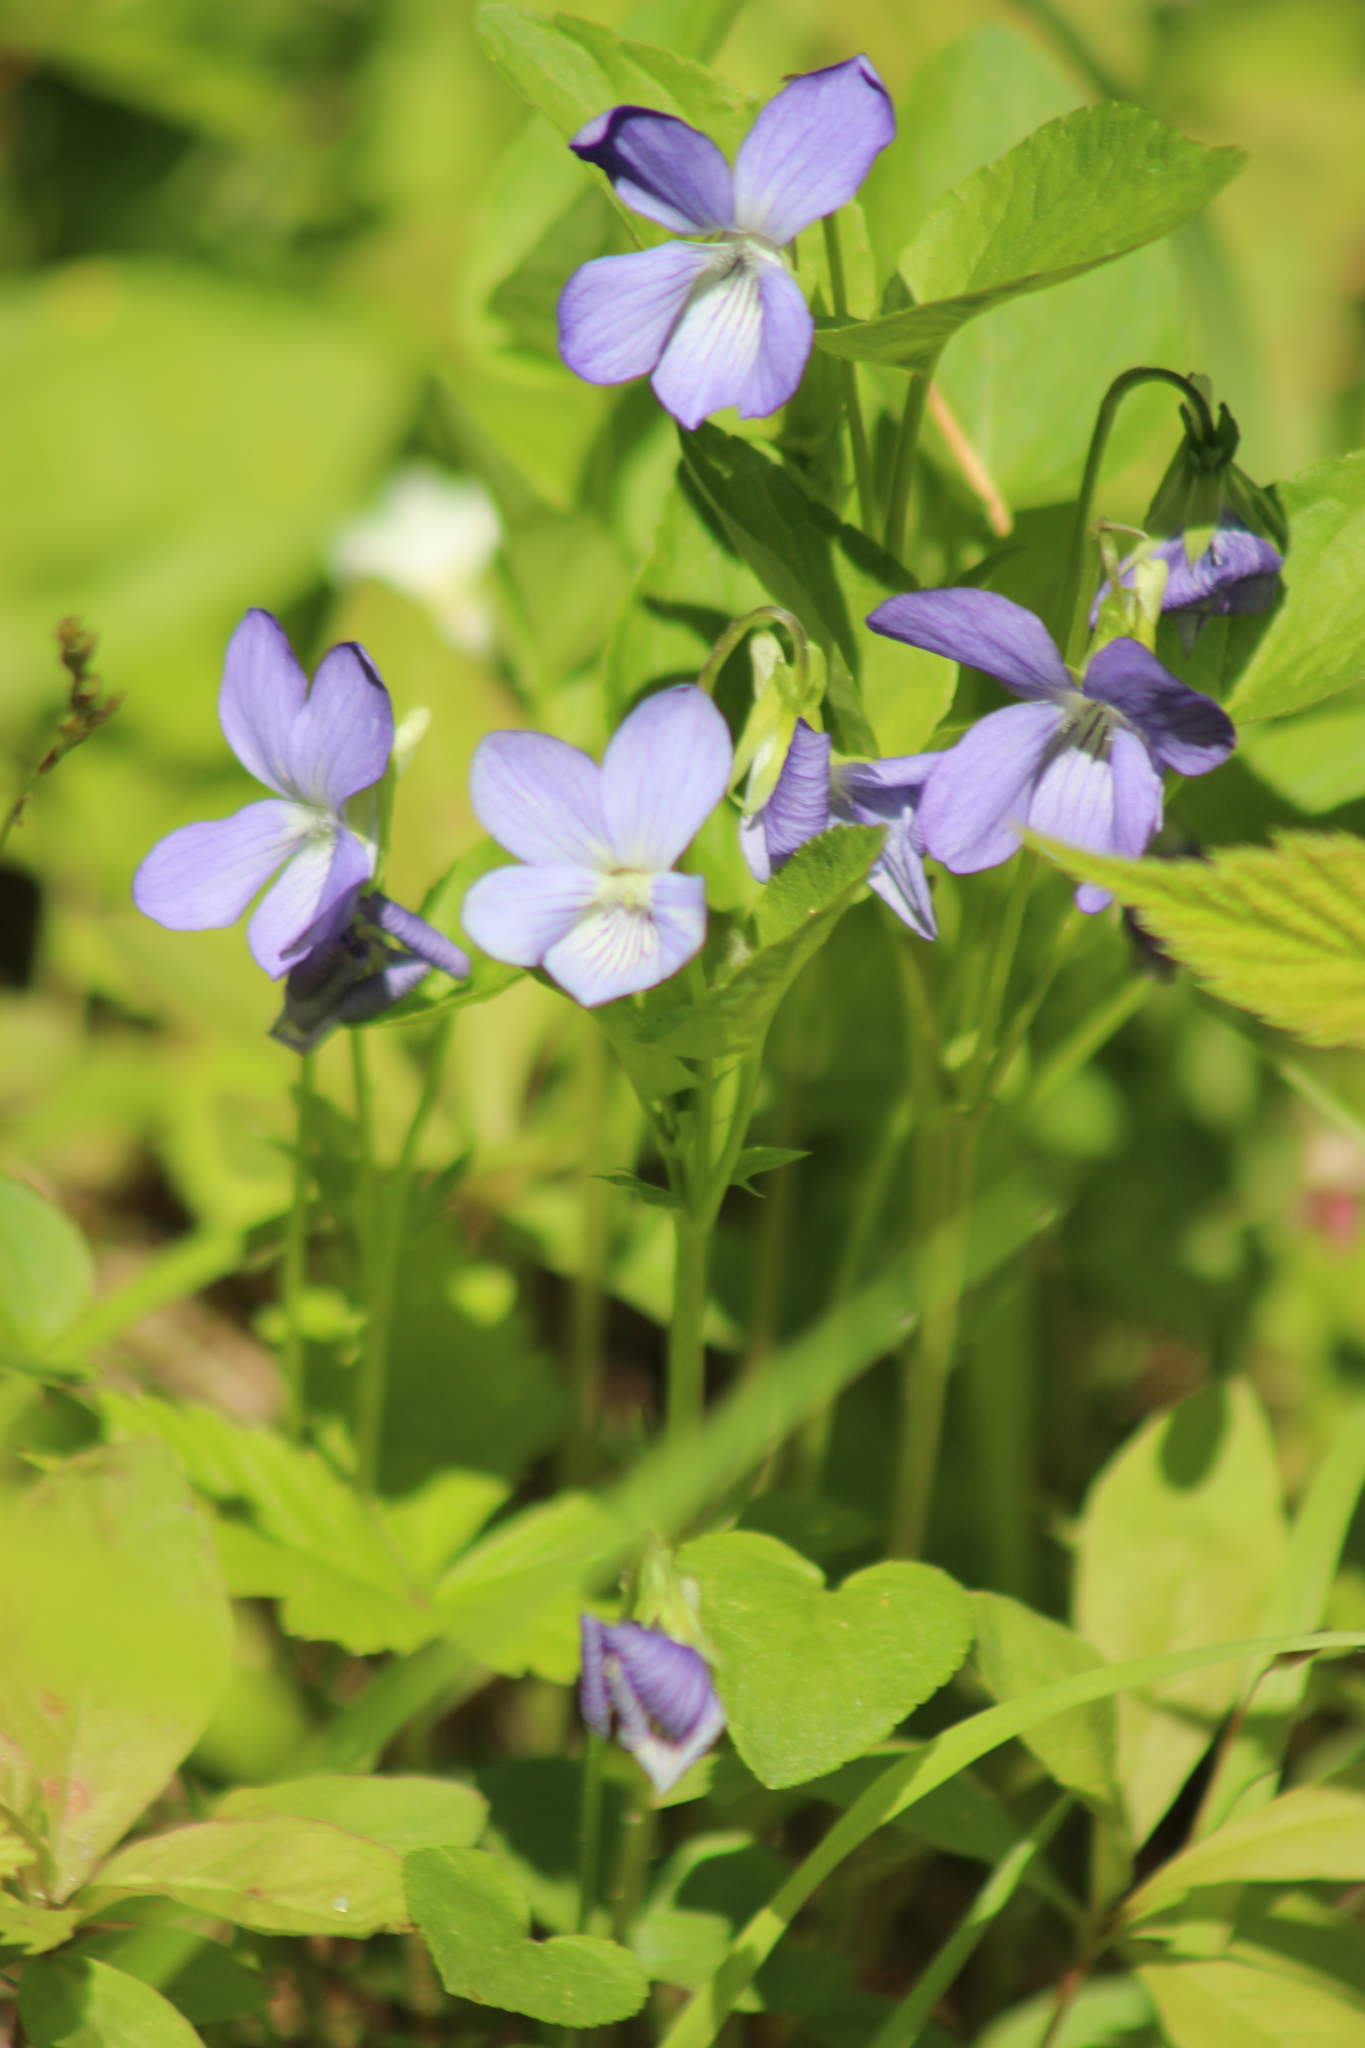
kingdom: Plantae
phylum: Tracheophyta
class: Magnoliopsida
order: Malpighiales
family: Violaceae
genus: Viola
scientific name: Viola canina
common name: Heath dog-violet
